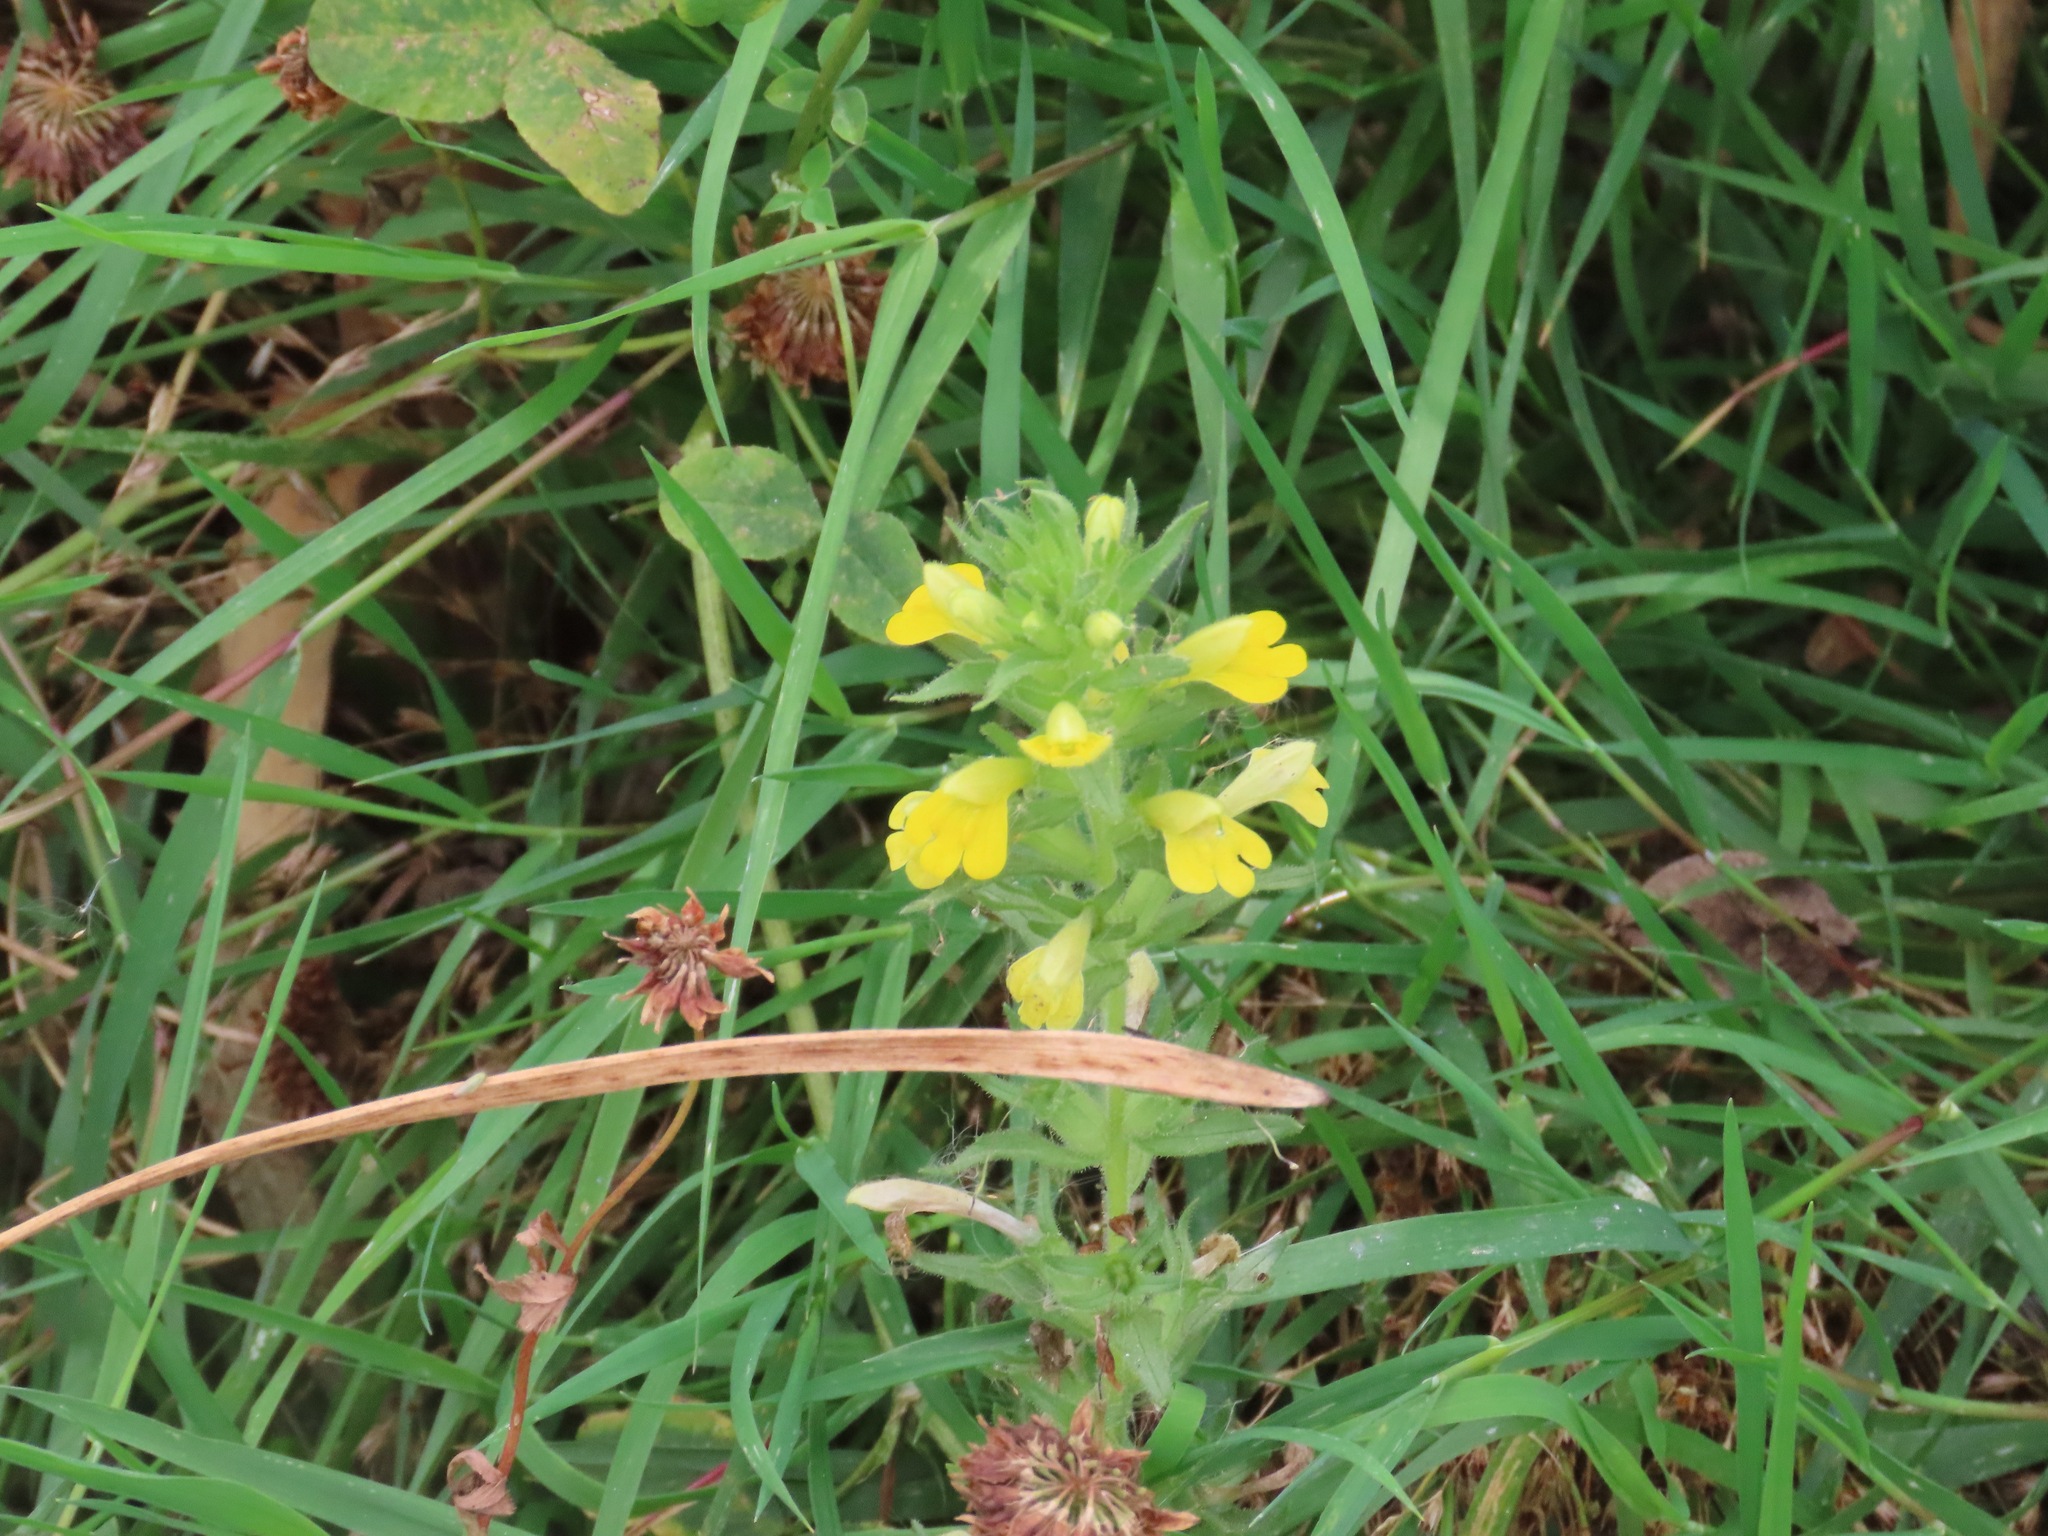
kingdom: Plantae
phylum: Tracheophyta
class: Magnoliopsida
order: Lamiales
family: Orobanchaceae
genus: Bellardia
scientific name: Bellardia viscosa
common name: Sticky parentucellia
